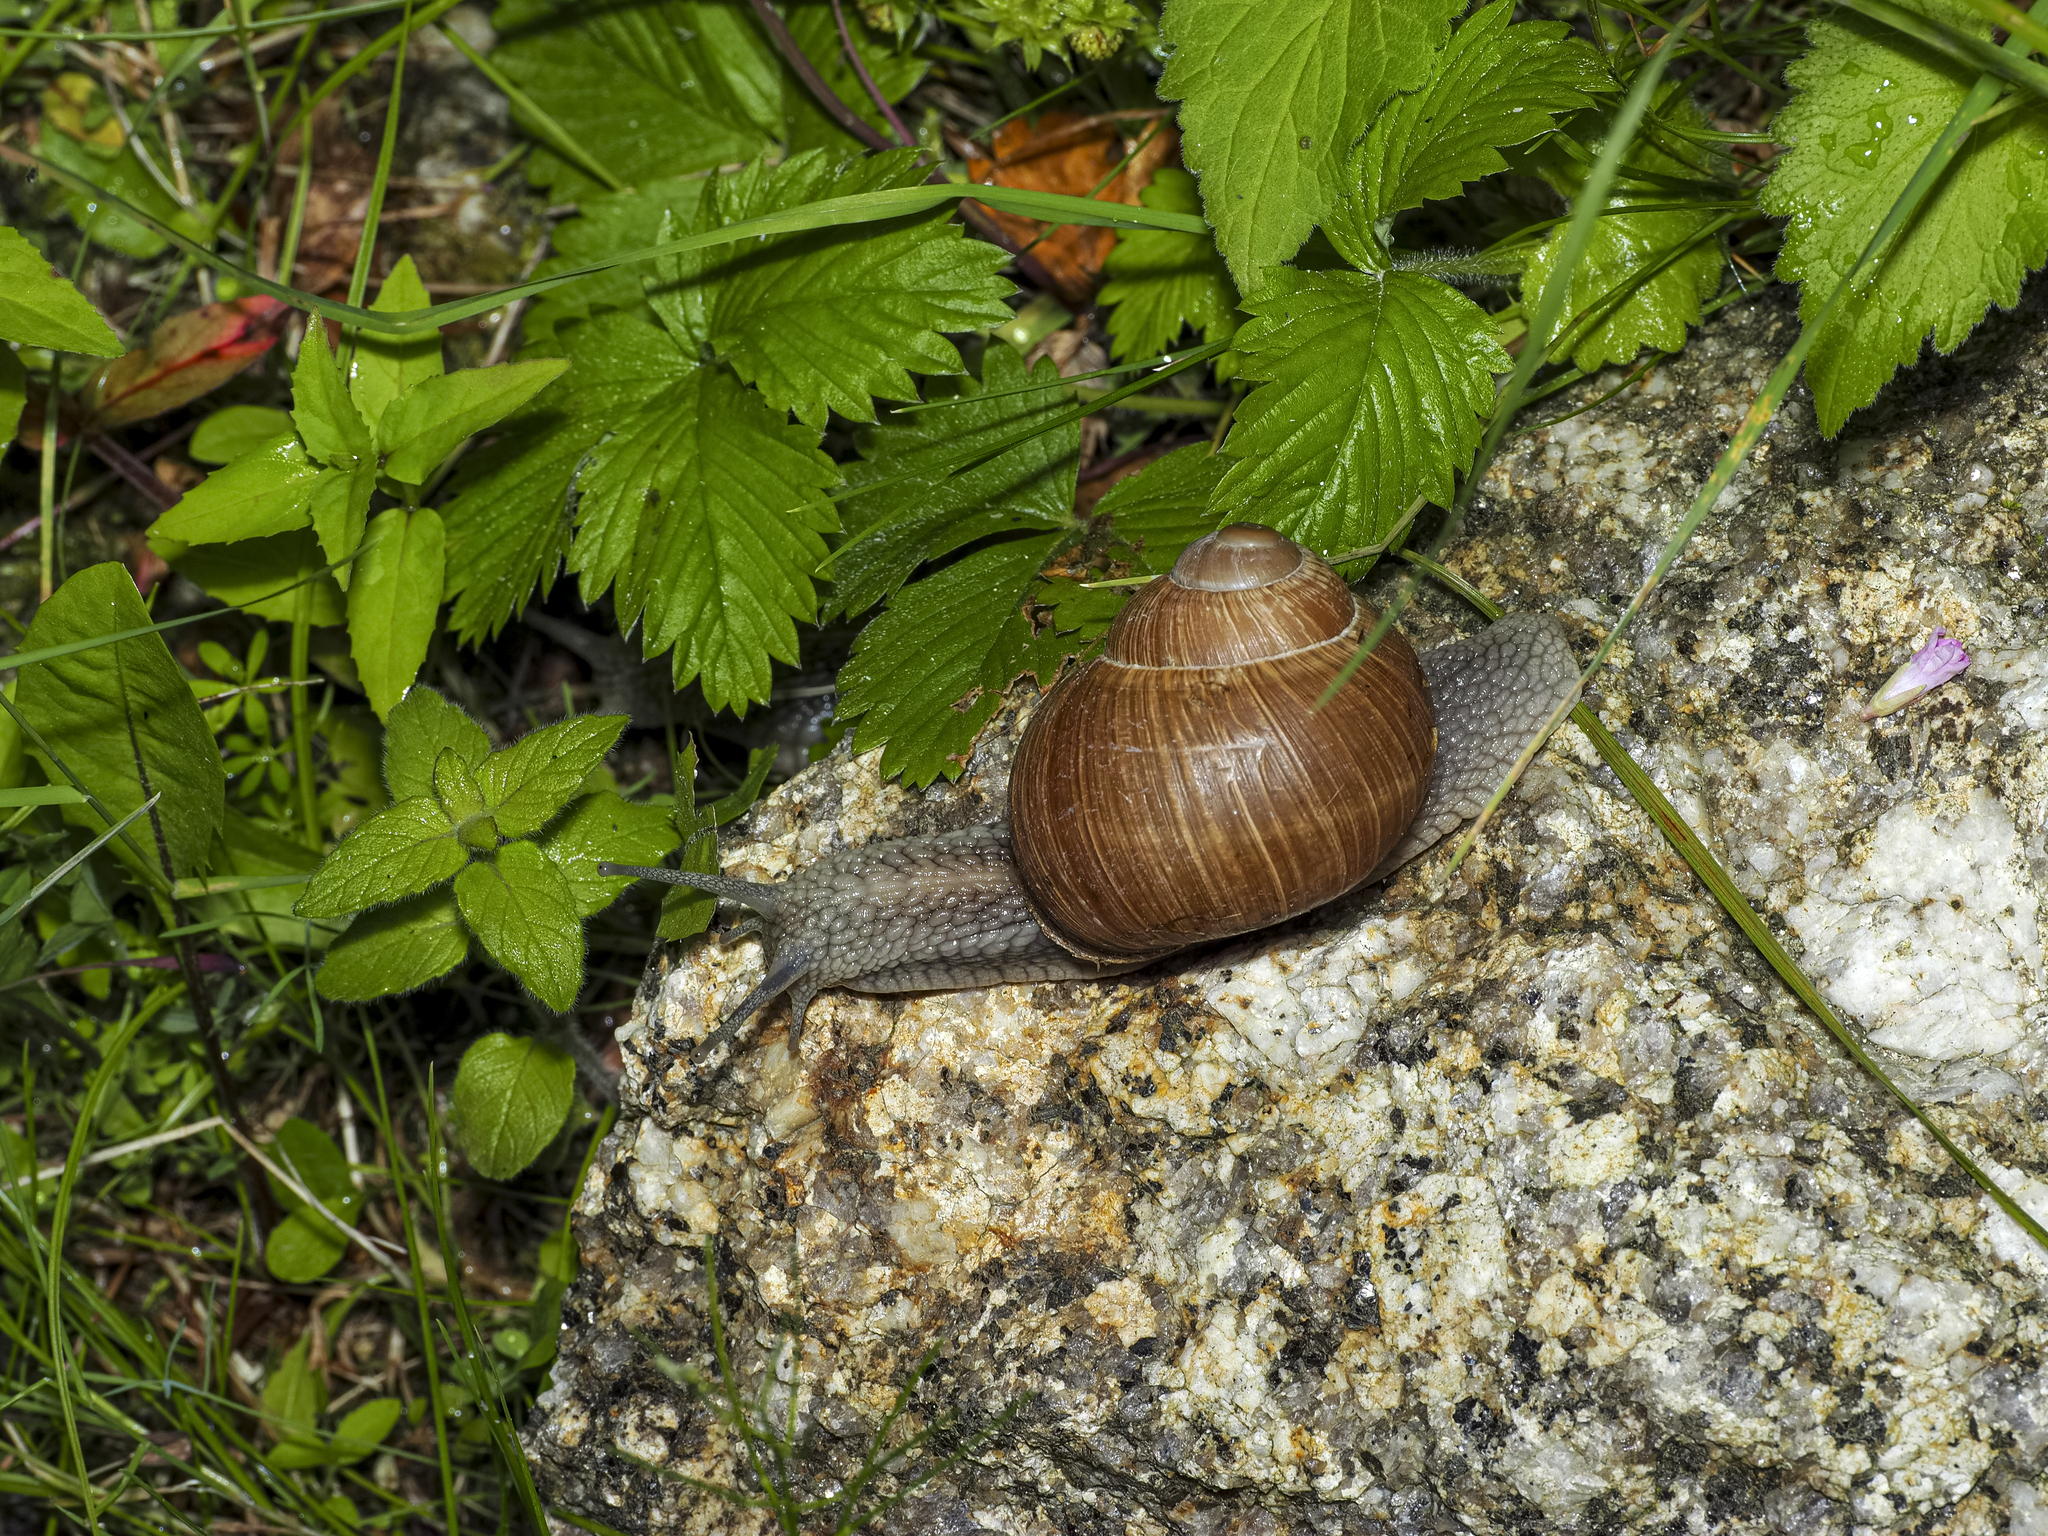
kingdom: Animalia
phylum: Mollusca
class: Gastropoda
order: Stylommatophora
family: Helicidae
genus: Helix
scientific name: Helix pomatia
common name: Roman snail
